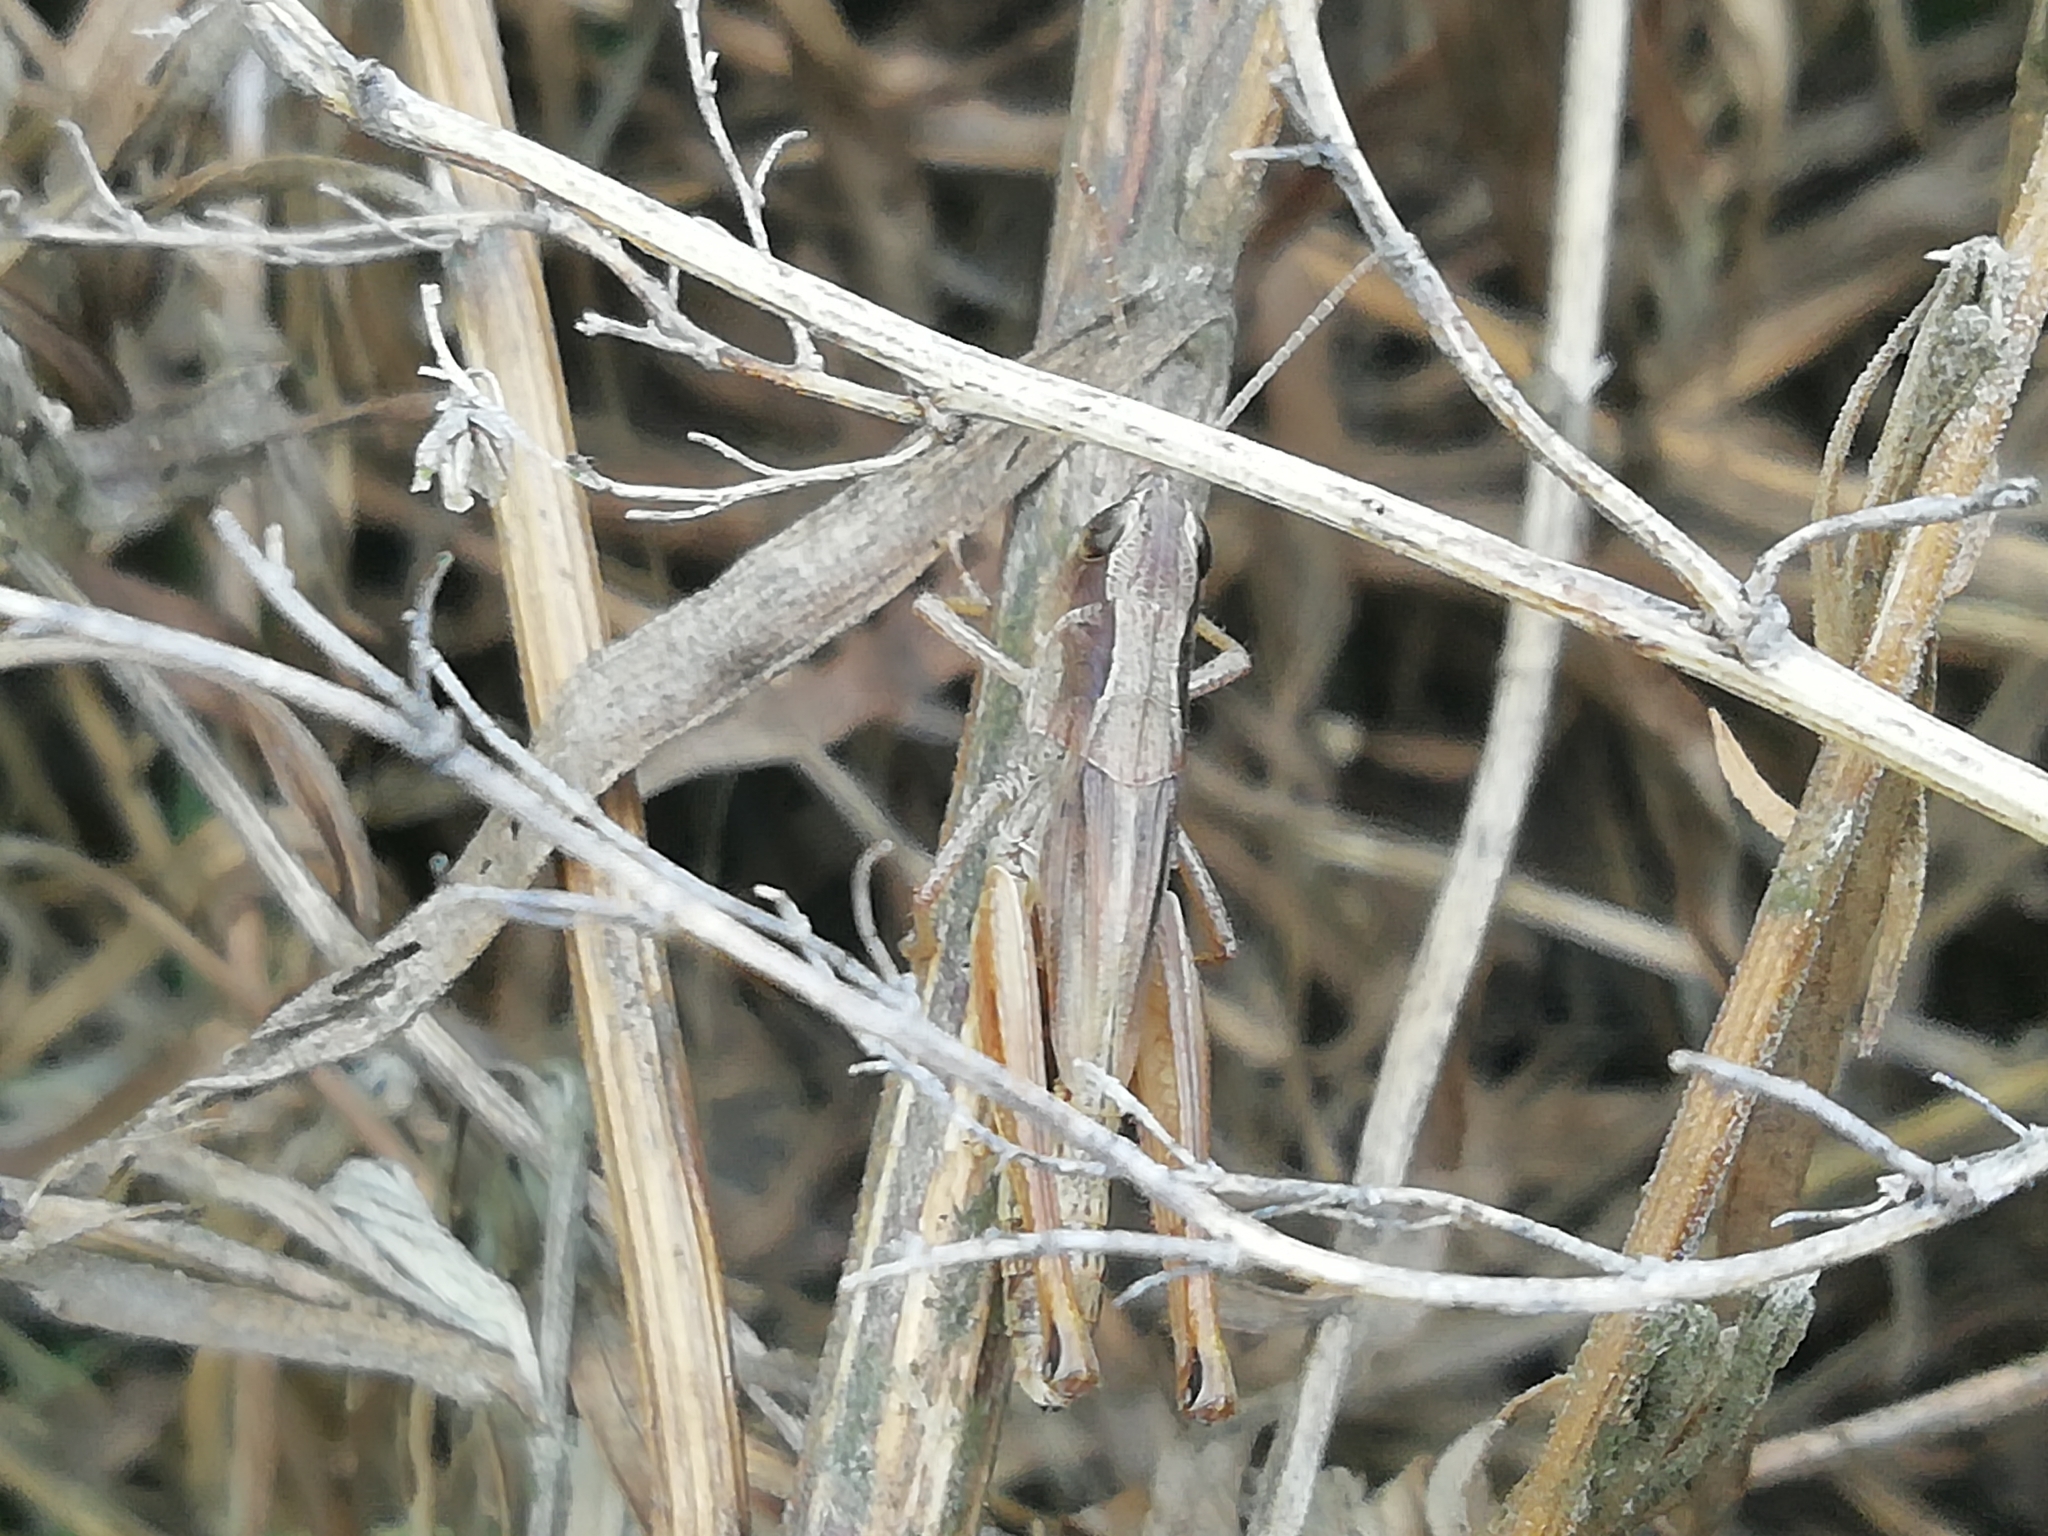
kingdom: Animalia
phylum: Arthropoda
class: Insecta
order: Orthoptera
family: Acrididae
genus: Pseudochorthippus
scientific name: Pseudochorthippus parallelus
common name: Meadow grasshopper
